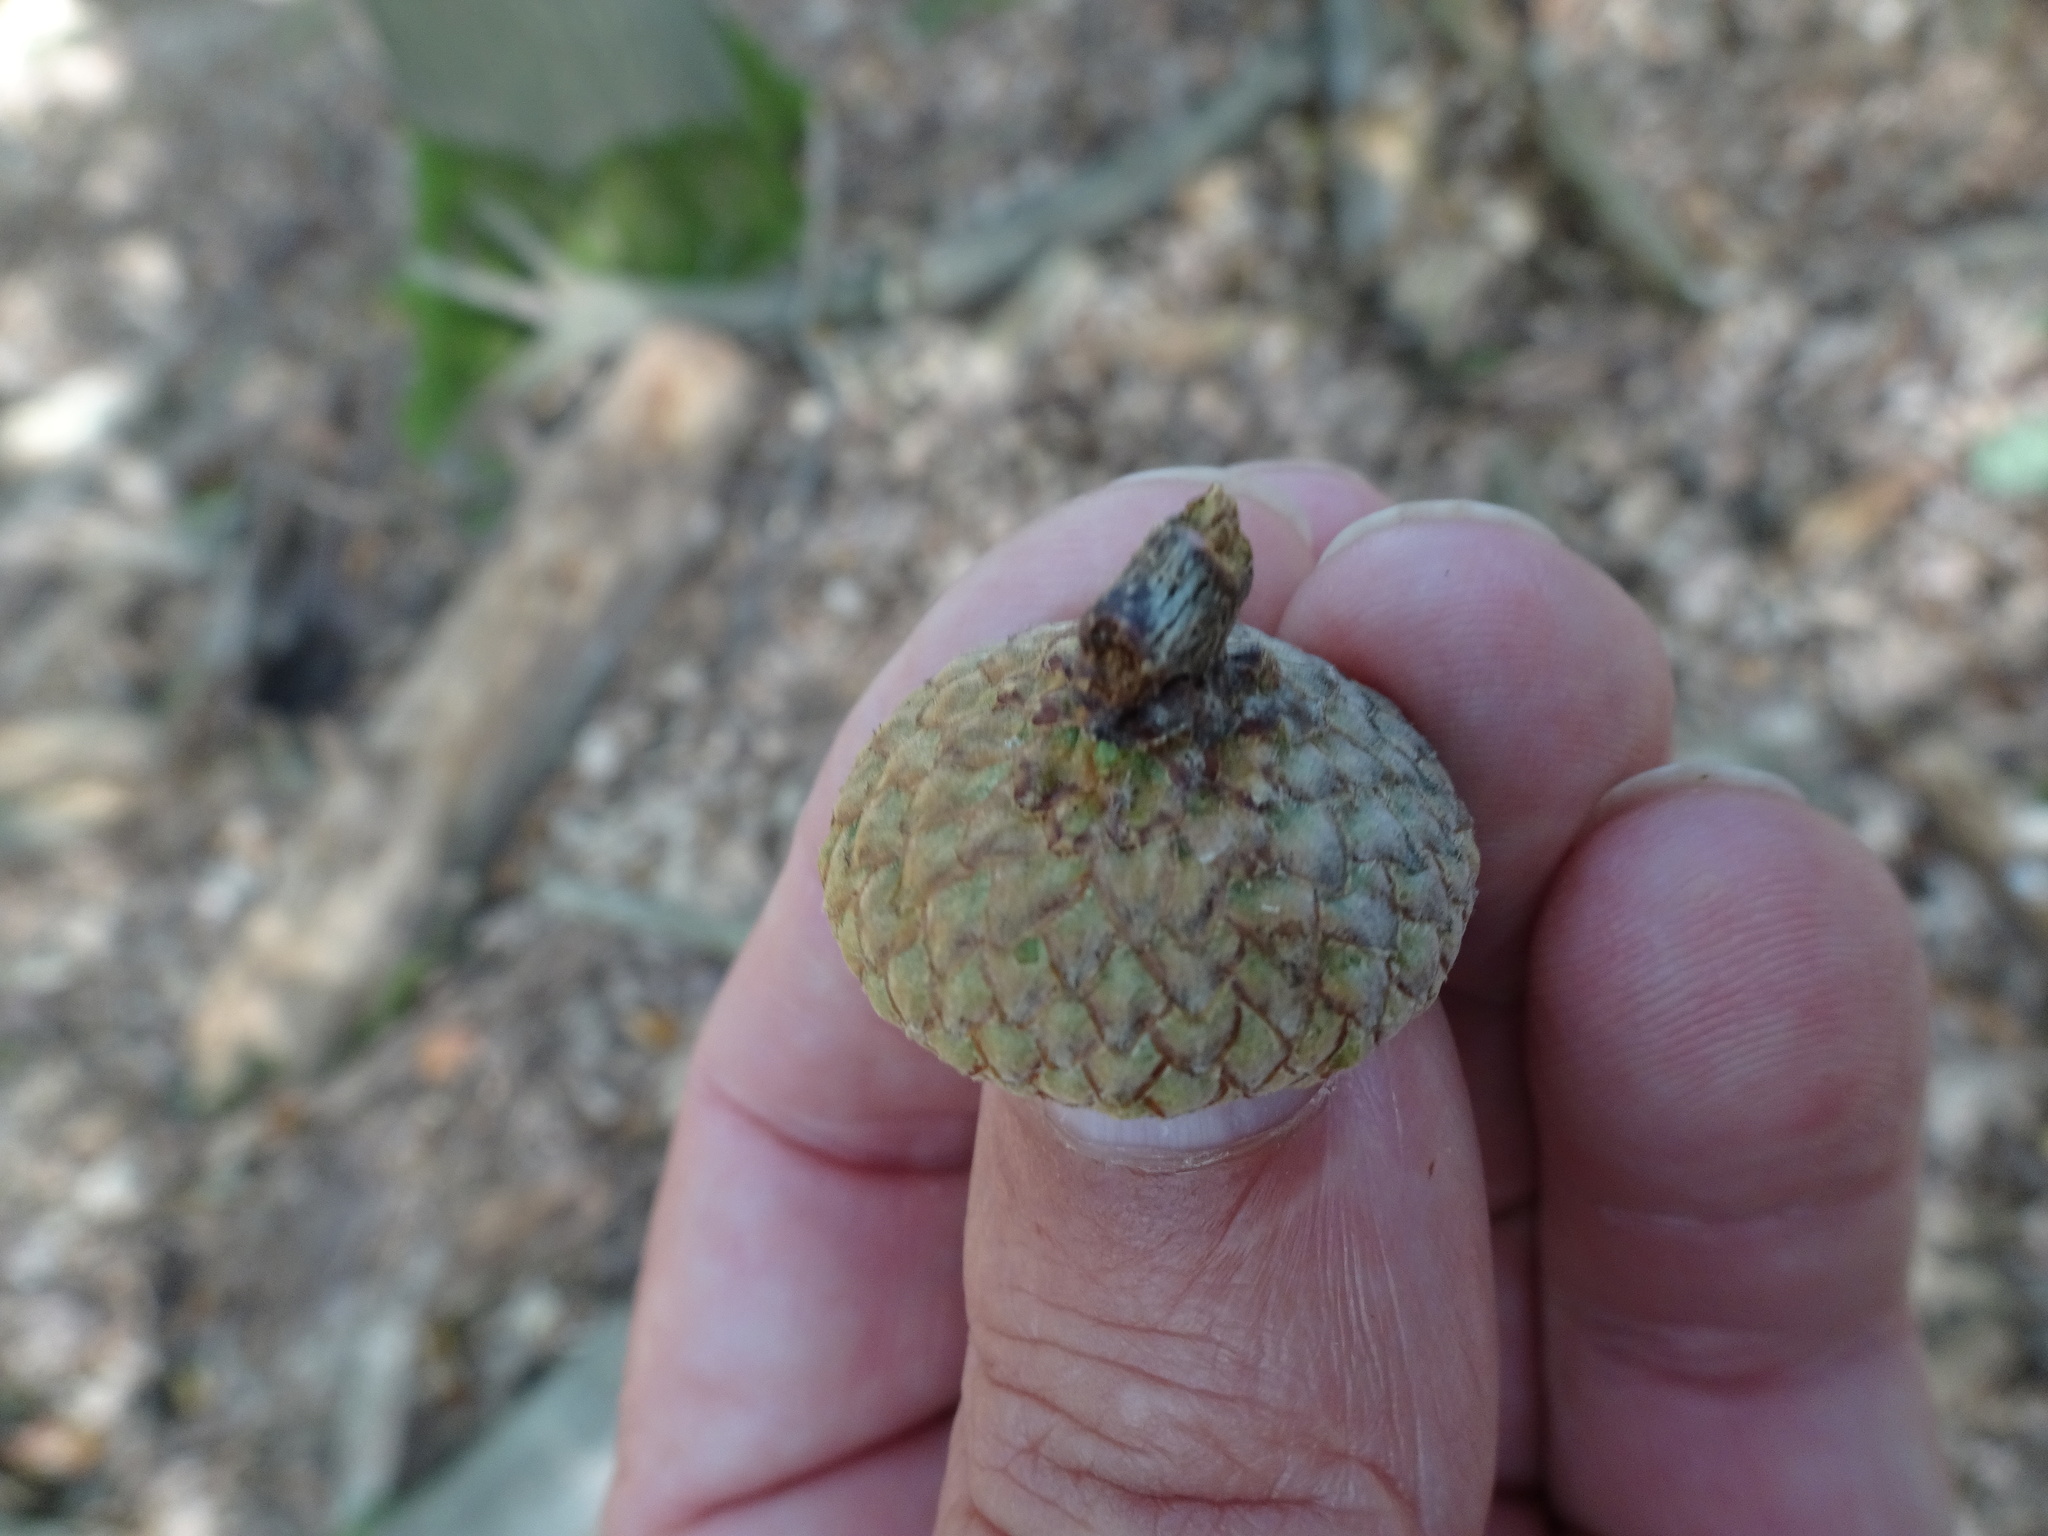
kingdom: Plantae
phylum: Tracheophyta
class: Magnoliopsida
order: Fagales
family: Fagaceae
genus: Quercus
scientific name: Quercus rubra
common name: Red oak
